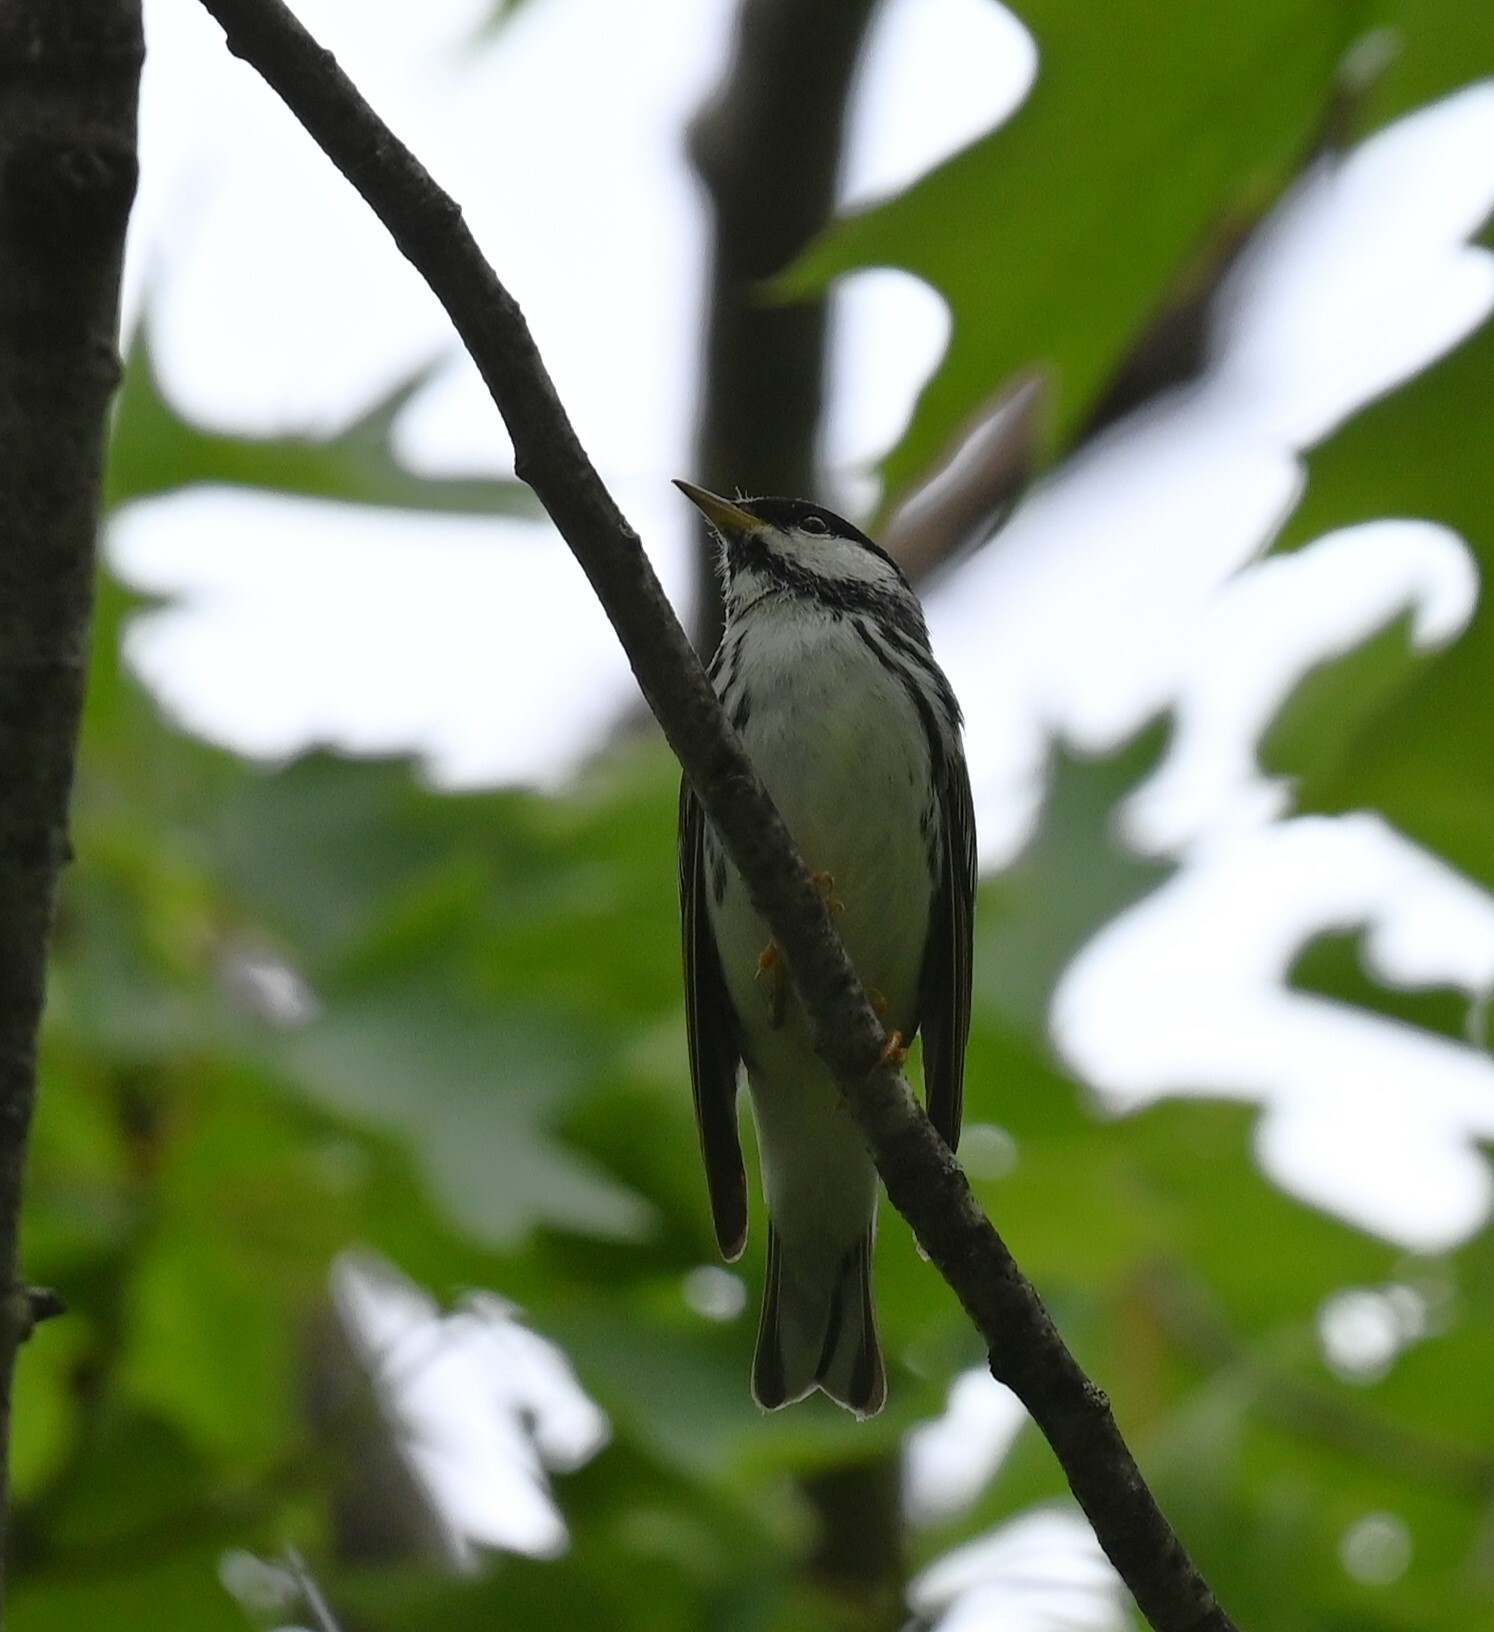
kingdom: Animalia
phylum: Chordata
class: Aves
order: Passeriformes
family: Parulidae
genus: Setophaga
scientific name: Setophaga striata
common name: Blackpoll warbler
